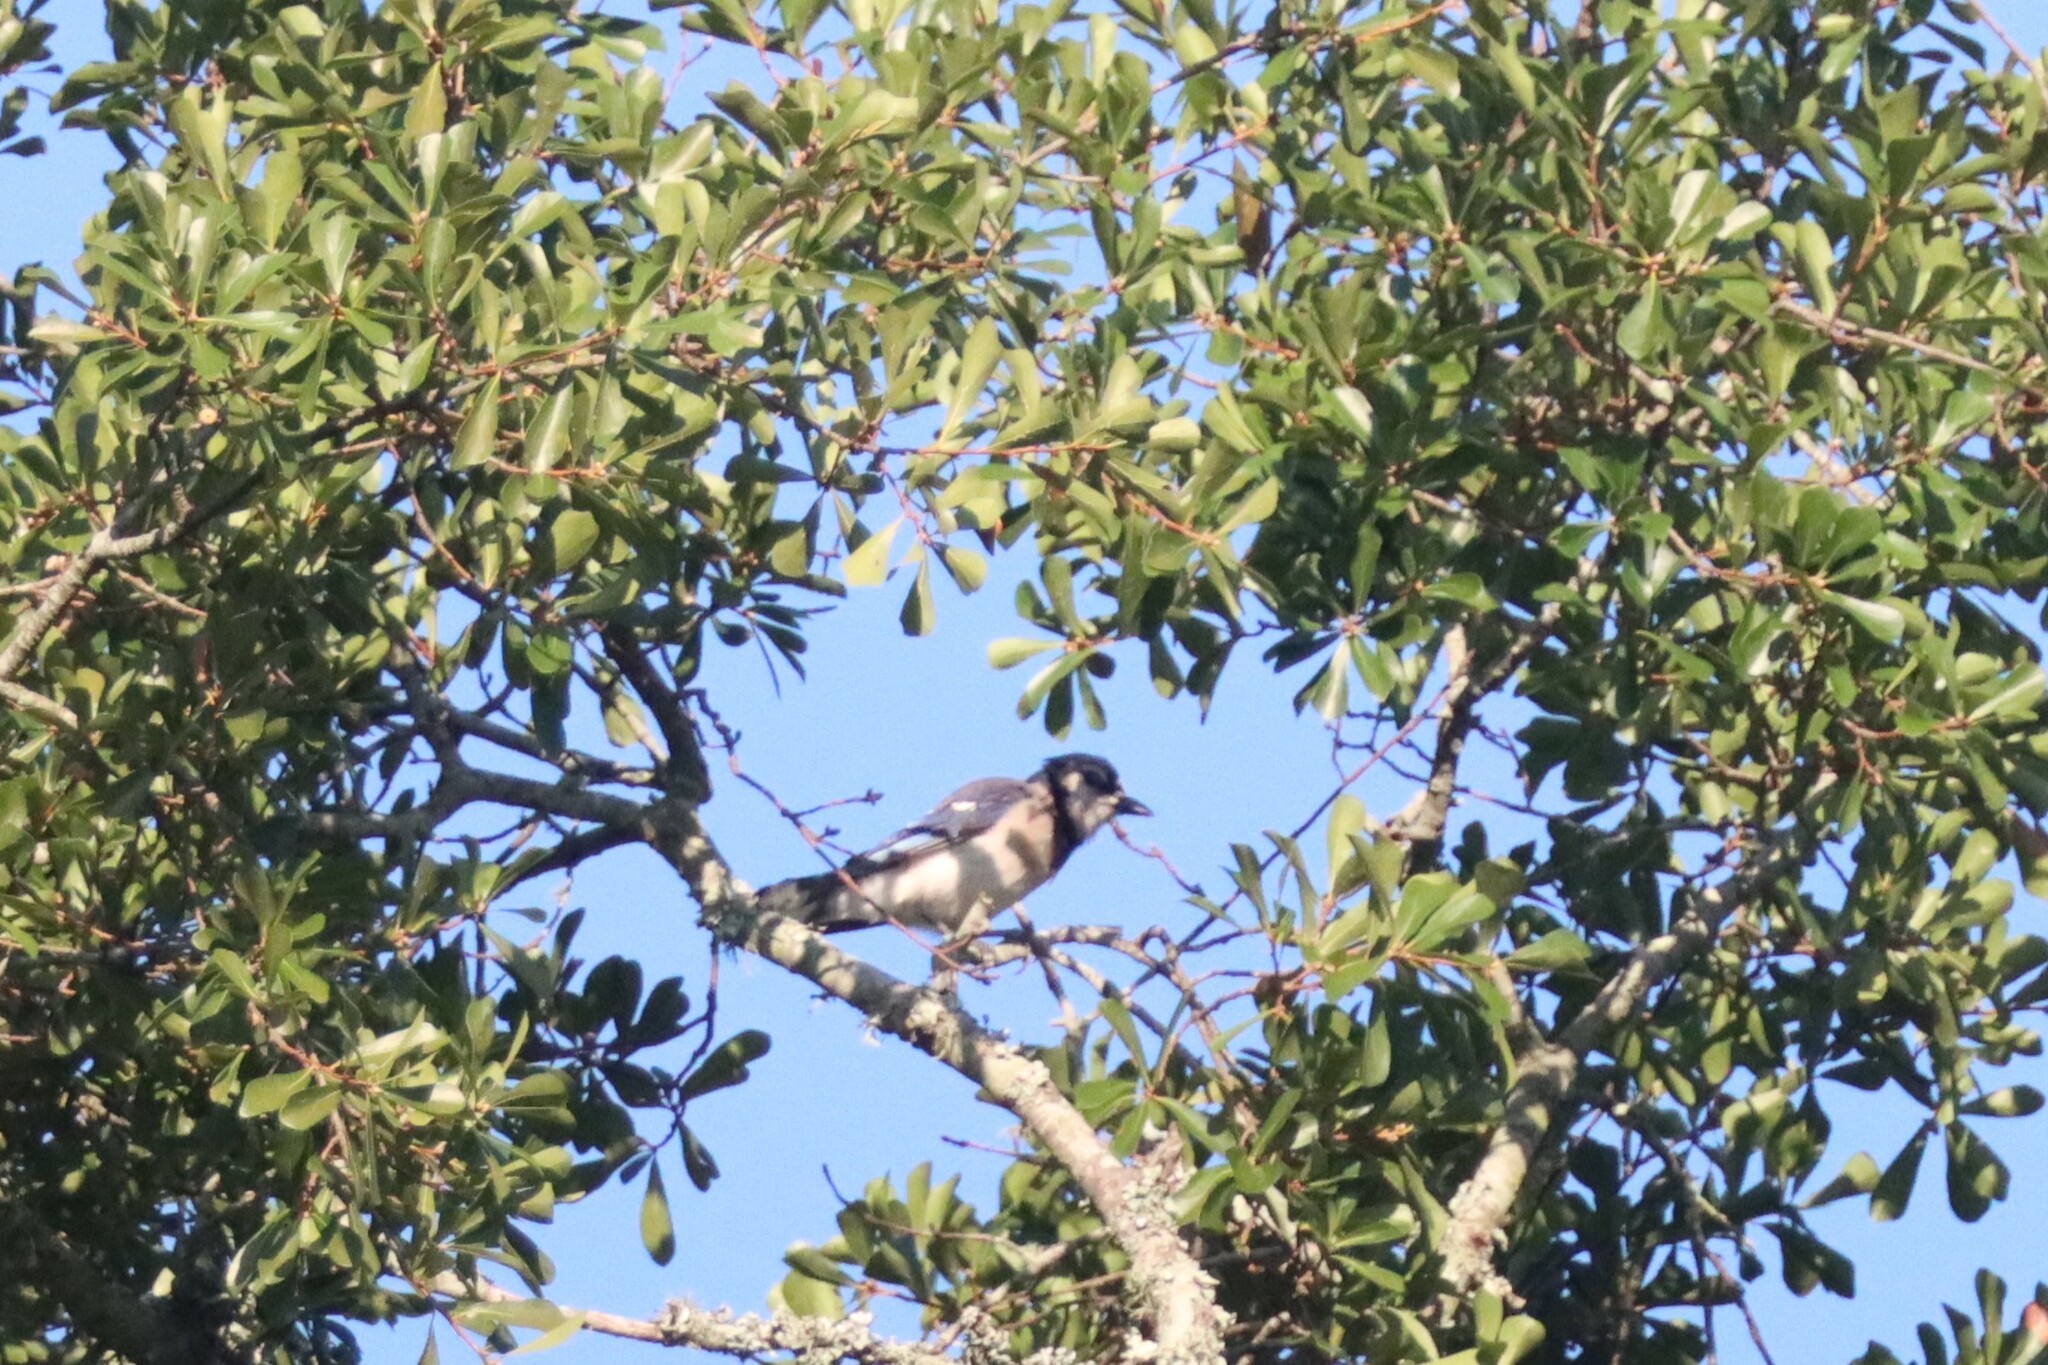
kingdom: Animalia
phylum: Chordata
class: Aves
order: Passeriformes
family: Corvidae
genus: Cyanocitta
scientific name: Cyanocitta cristata
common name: Blue jay
